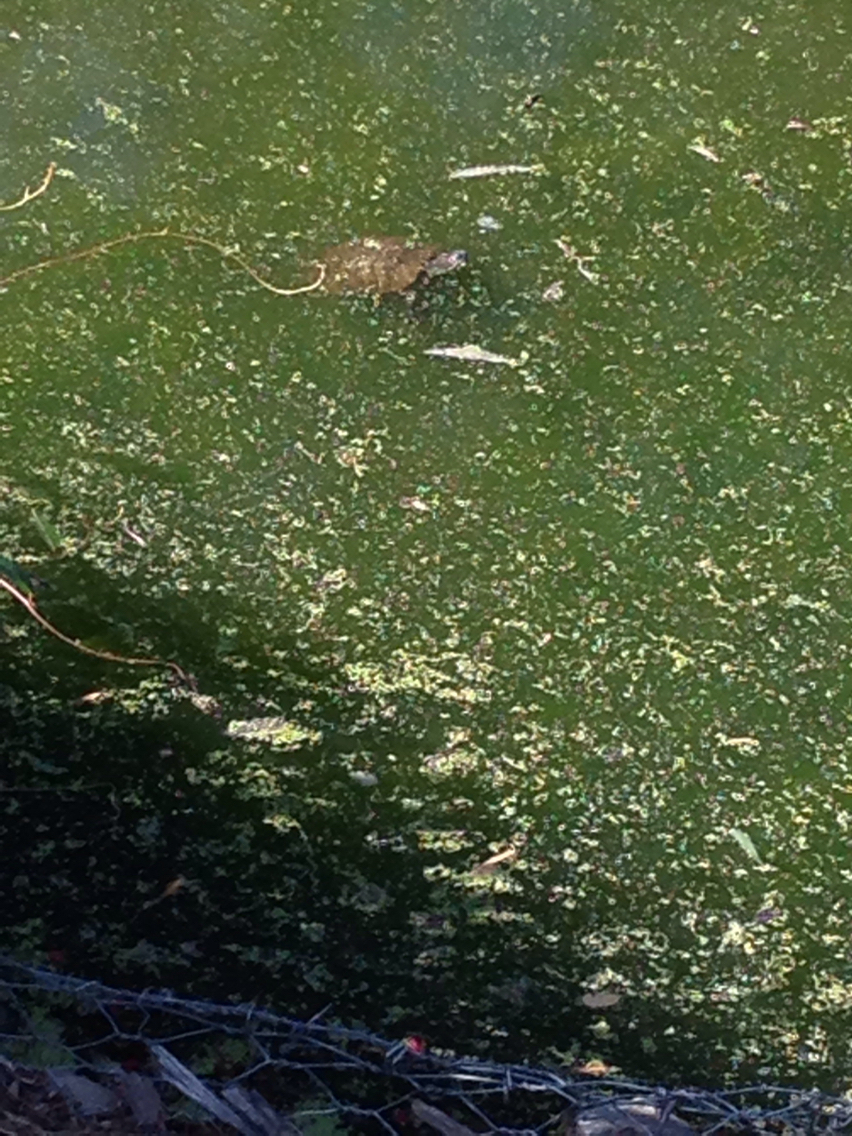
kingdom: Animalia
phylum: Chordata
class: Testudines
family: Emydidae
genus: Trachemys
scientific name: Trachemys scripta
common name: Slider
